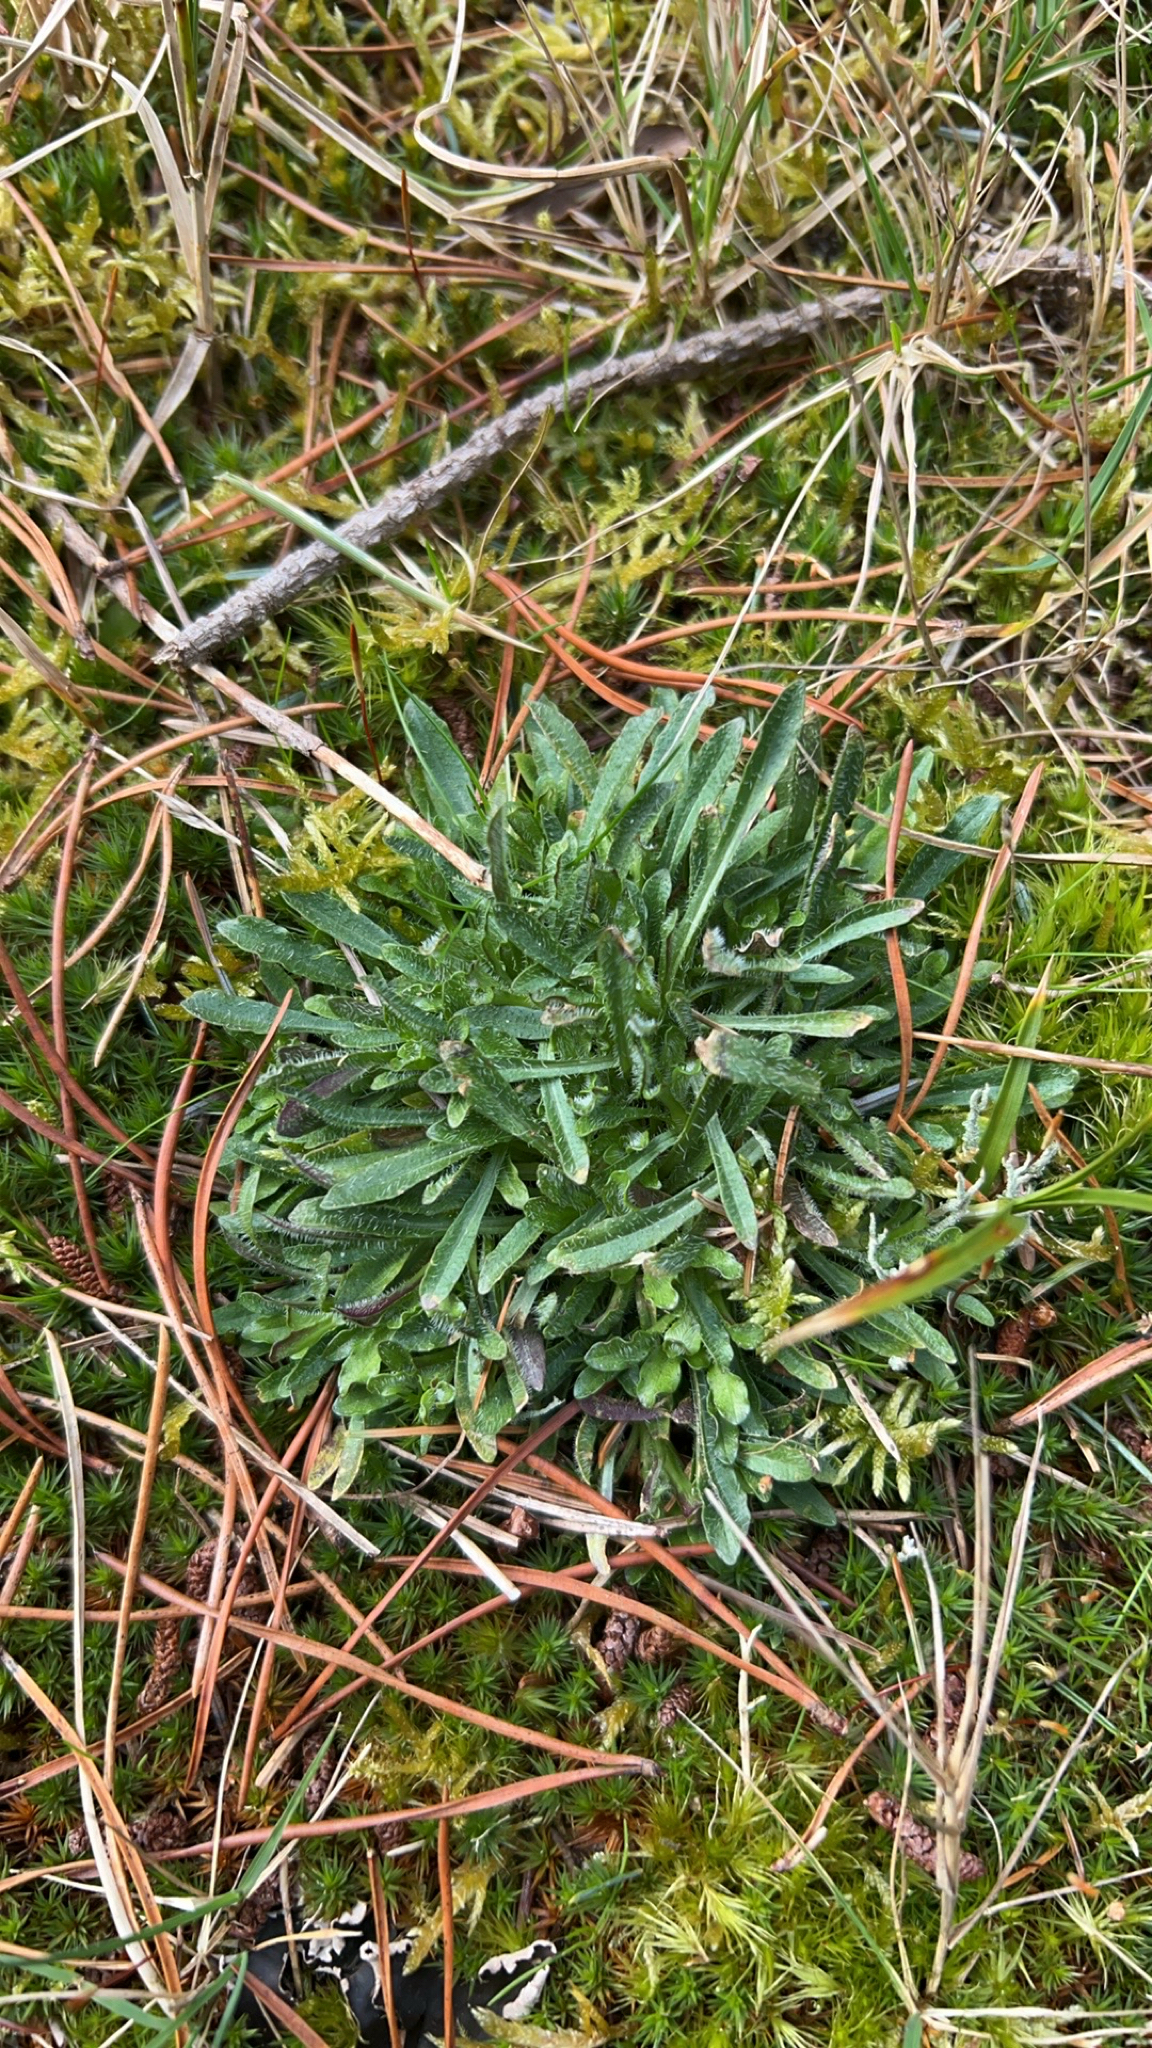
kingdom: Plantae
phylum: Tracheophyta
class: Magnoliopsida
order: Asterales
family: Campanulaceae
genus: Jasione
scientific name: Jasione montana
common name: Sheep's-bit
